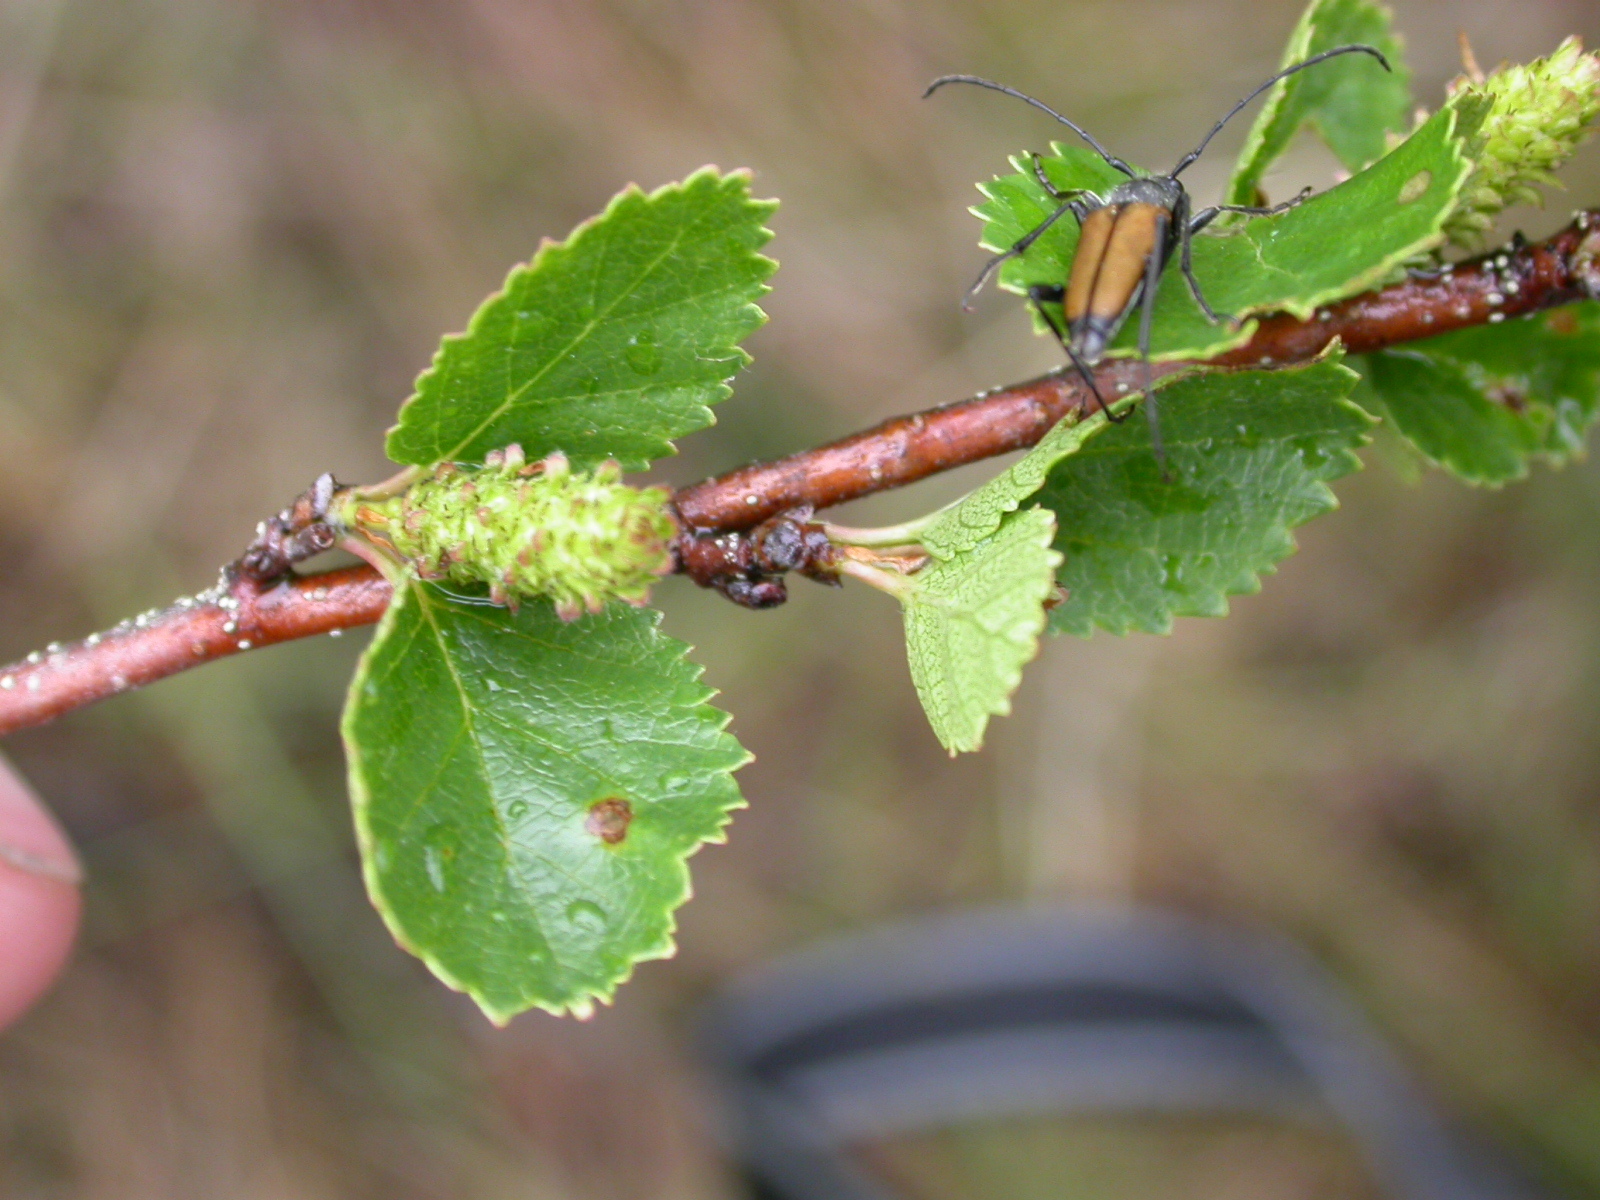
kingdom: Plantae
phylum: Tracheophyta
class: Magnoliopsida
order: Fagales
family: Betulaceae
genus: Betula
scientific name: Betula humilis
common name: Shrubby birch
